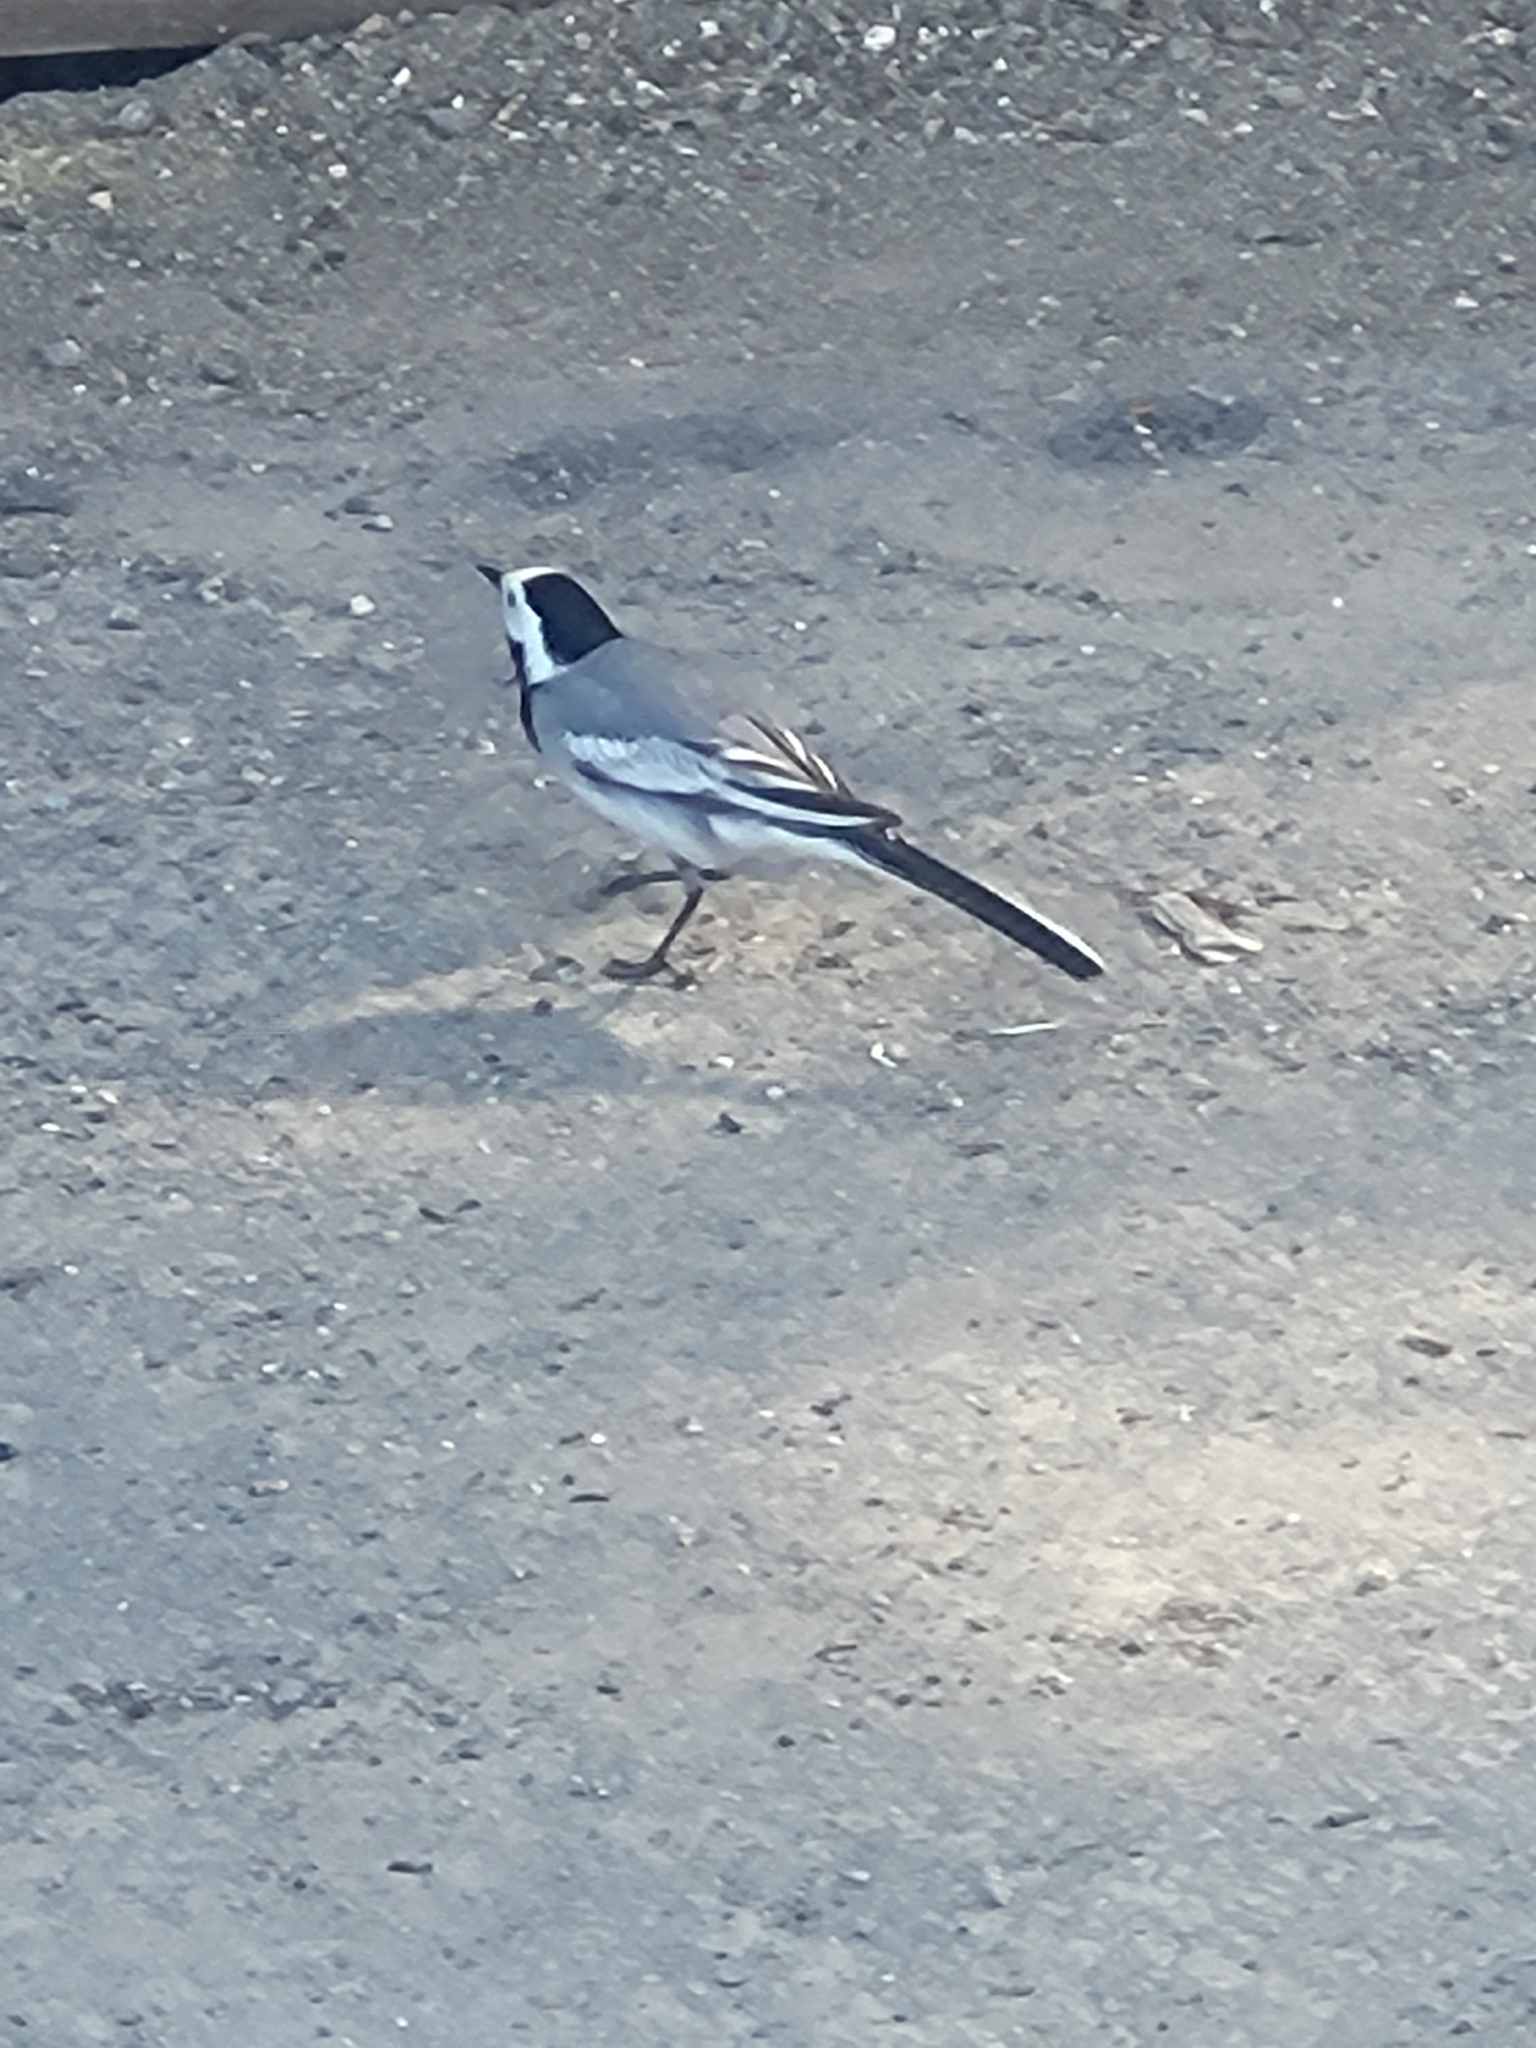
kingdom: Animalia
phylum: Chordata
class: Aves
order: Passeriformes
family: Motacillidae
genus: Motacilla
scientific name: Motacilla alba
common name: White wagtail
